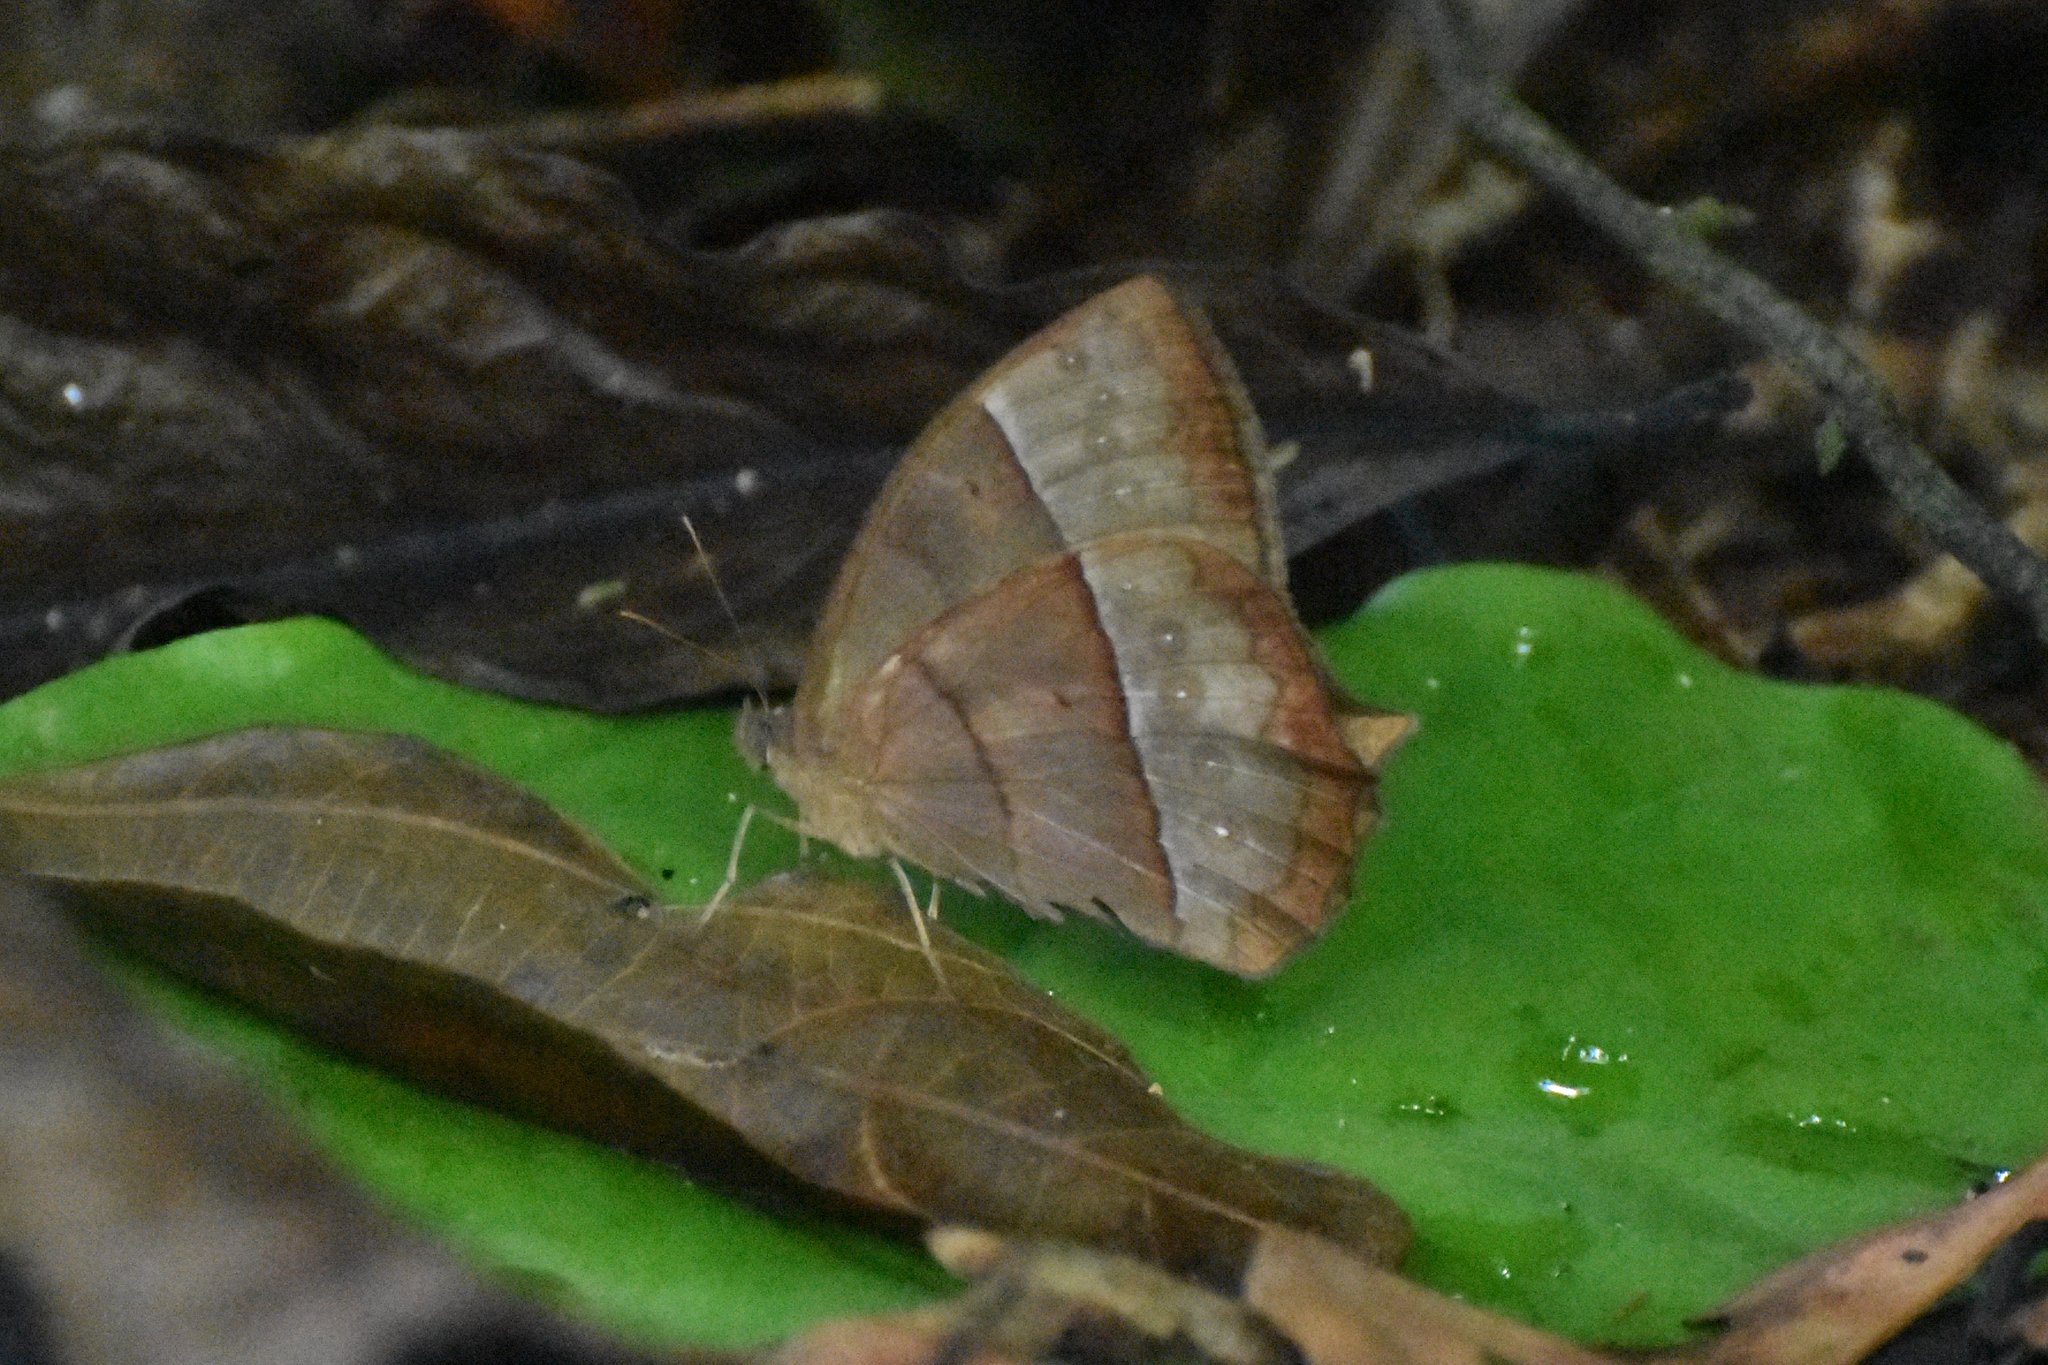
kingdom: Animalia
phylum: Arthropoda
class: Insecta
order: Lepidoptera
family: Nymphalidae
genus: Taygetis
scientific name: Taygetis virgilia
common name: Stub-tailed satyr
